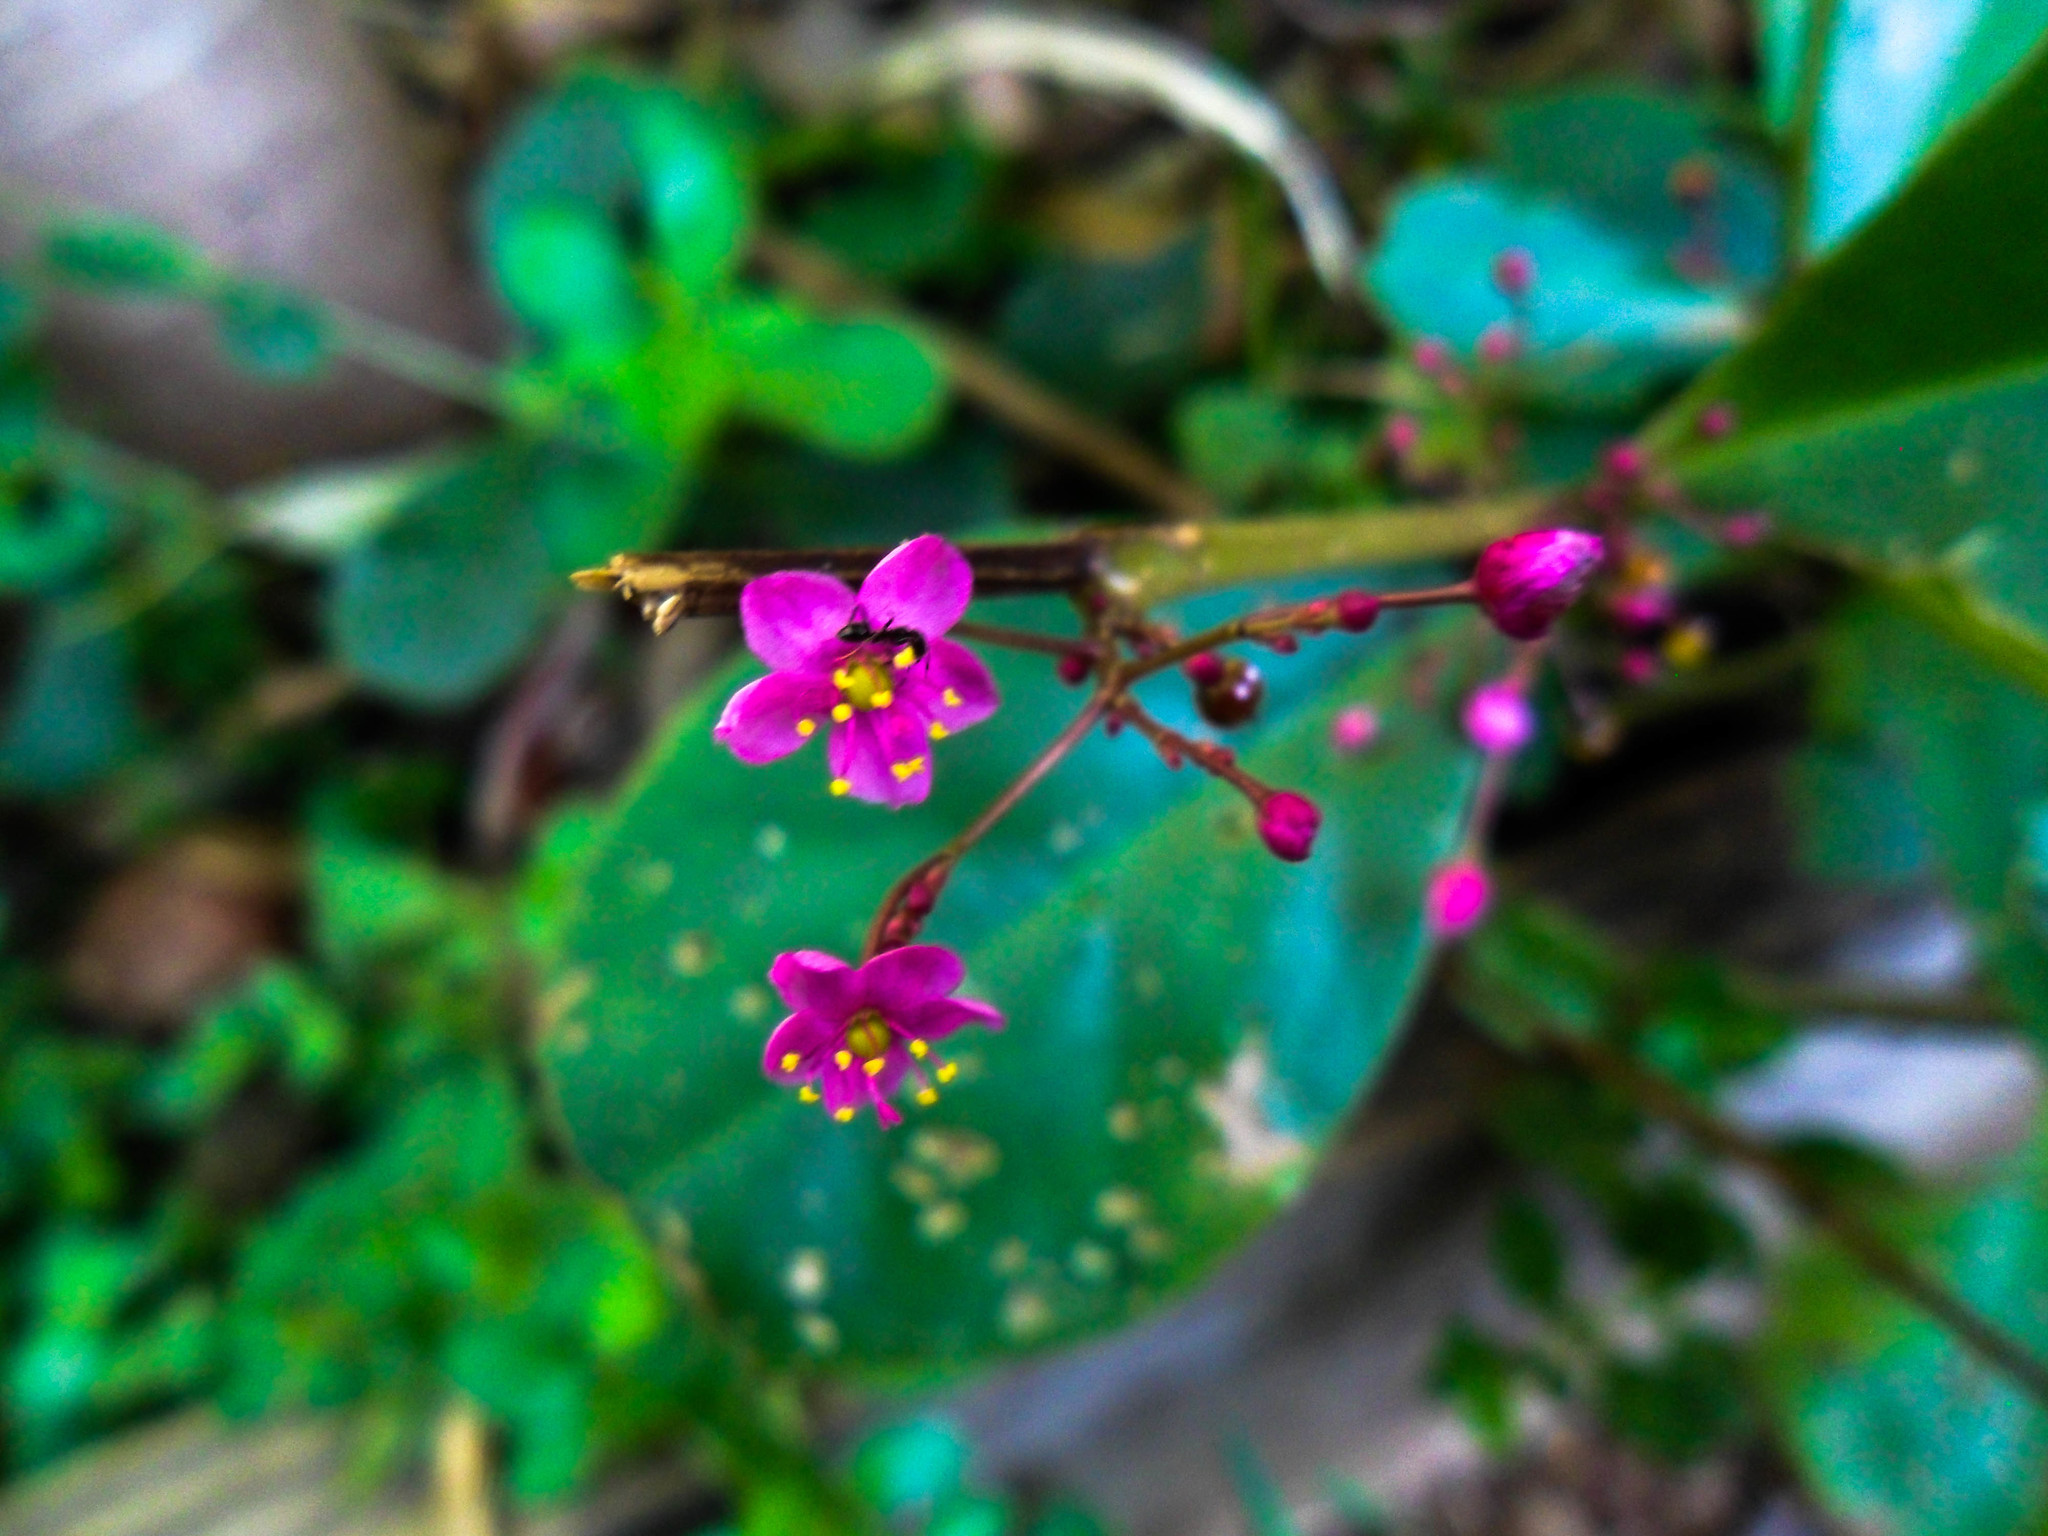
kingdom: Plantae
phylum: Tracheophyta
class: Magnoliopsida
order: Caryophyllales
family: Talinaceae
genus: Talinum
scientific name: Talinum paniculatum
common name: Jewels of opar
